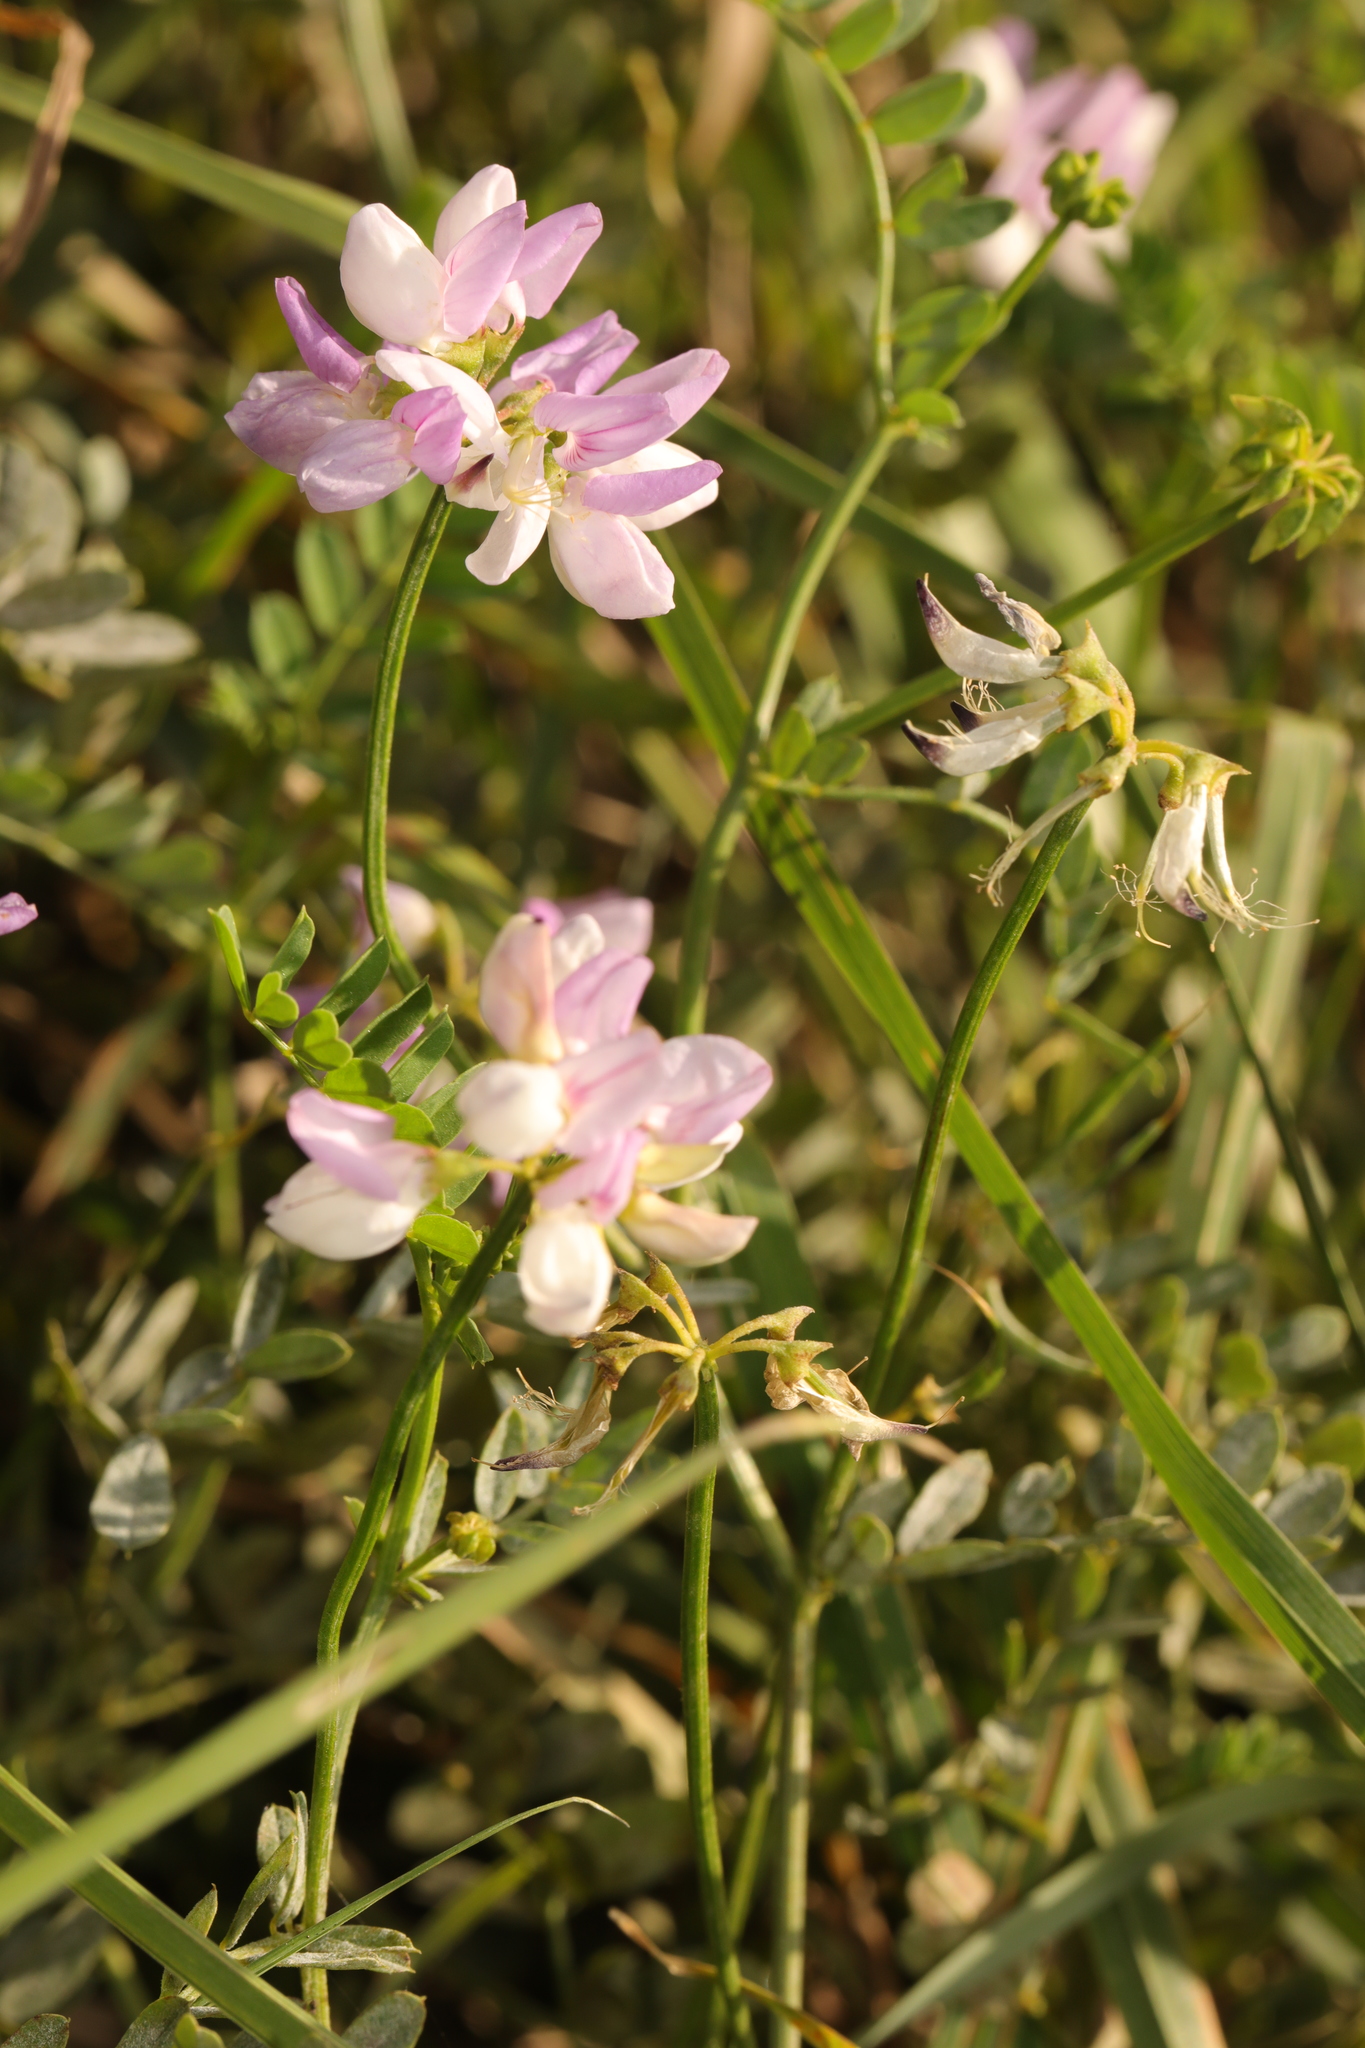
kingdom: Plantae
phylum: Tracheophyta
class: Magnoliopsida
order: Fabales
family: Fabaceae
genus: Coronilla
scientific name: Coronilla varia
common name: Crownvetch
